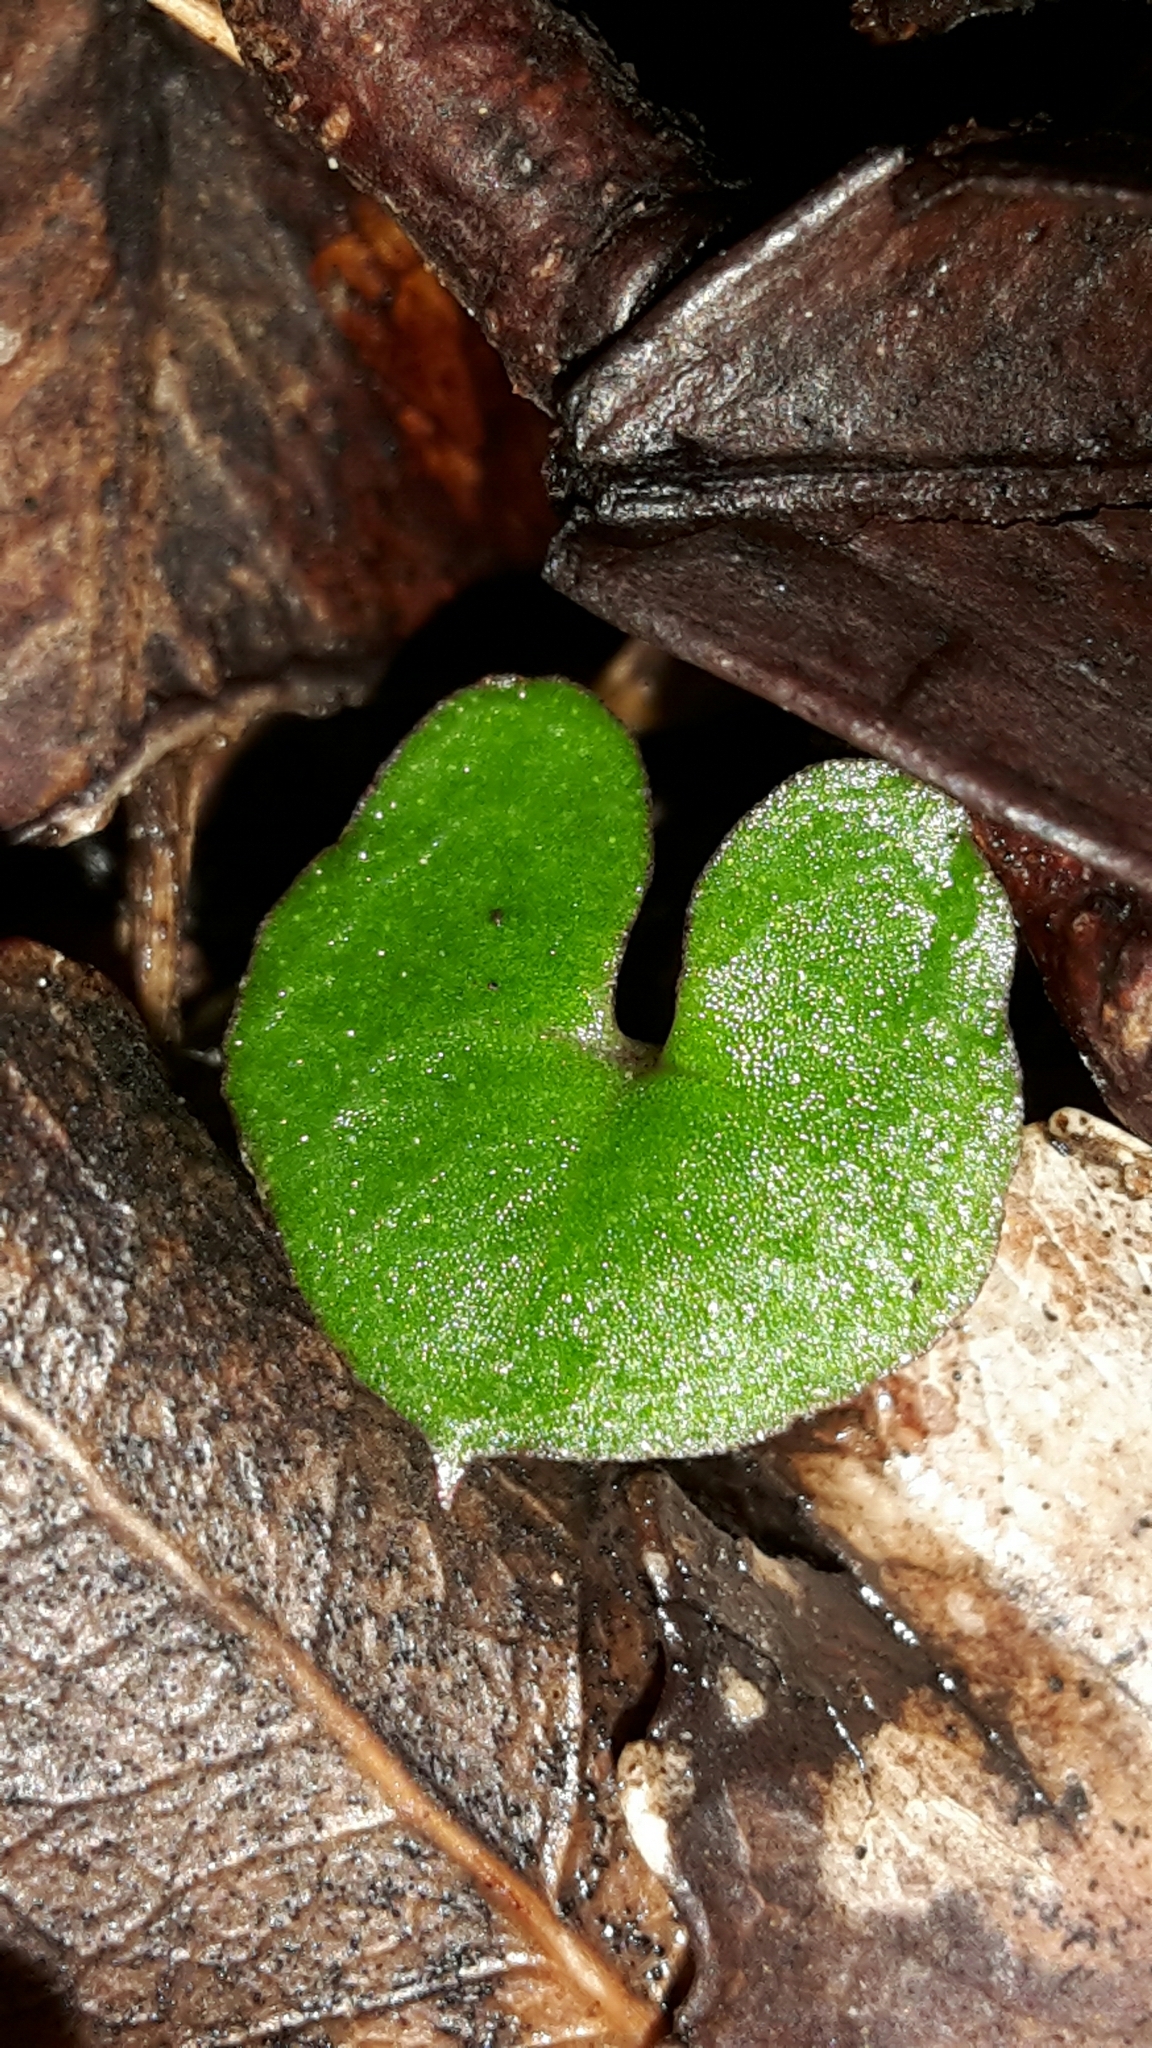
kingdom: Plantae
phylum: Tracheophyta
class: Liliopsida
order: Asparagales
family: Orchidaceae
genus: Acianthus
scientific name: Acianthus sinclairii
